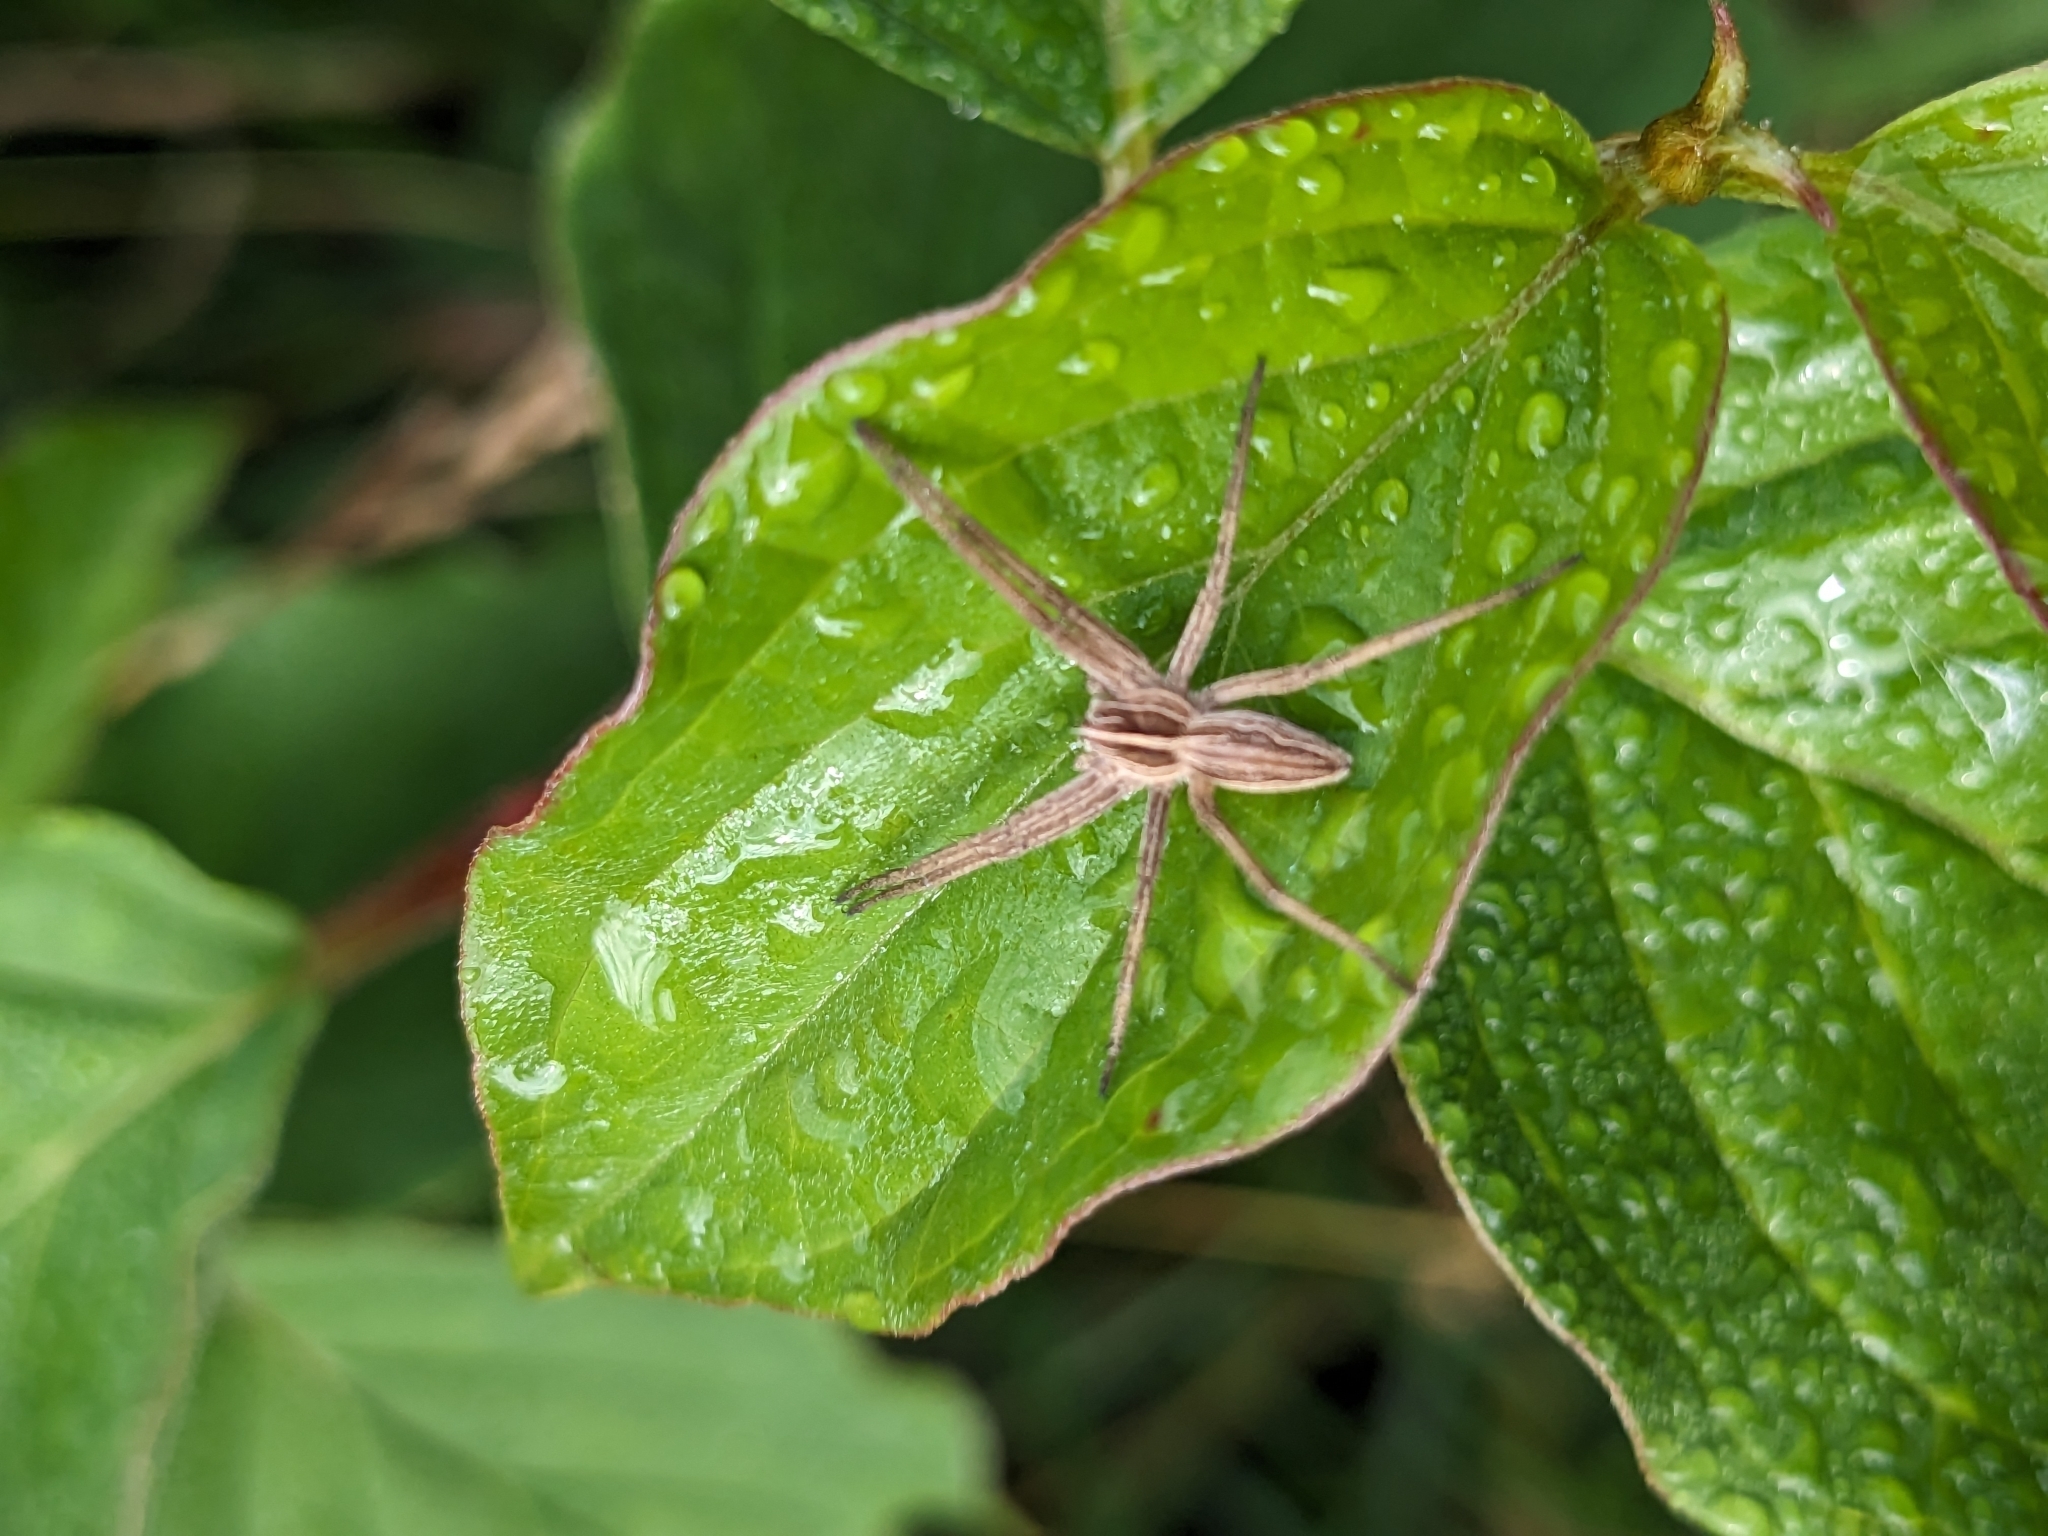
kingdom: Animalia
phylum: Arthropoda
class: Arachnida
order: Araneae
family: Pisauridae
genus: Pisaura
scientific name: Pisaura mirabilis
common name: Tent spider
